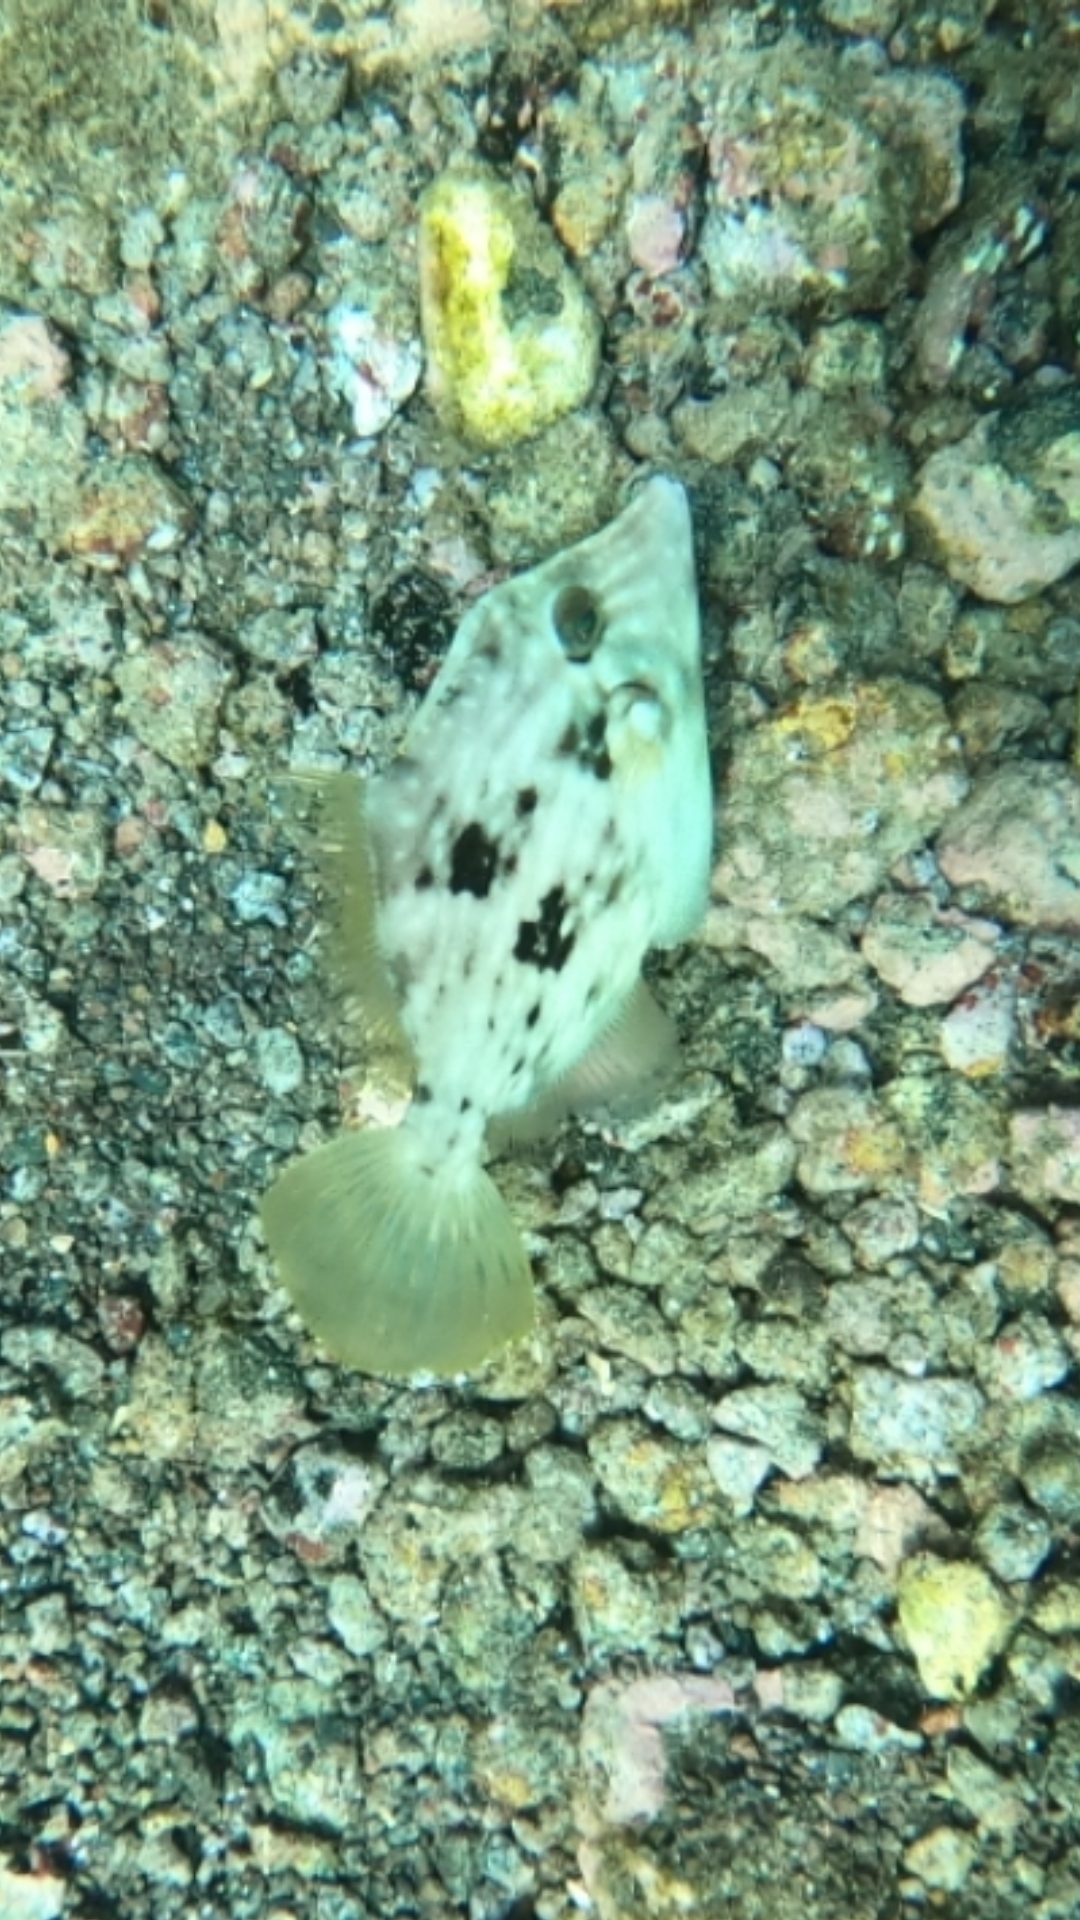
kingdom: Animalia
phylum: Chordata
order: Tetraodontiformes
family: Monacanthidae
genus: Stephanolepis
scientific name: Stephanolepis hispidus
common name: Planehead filefish
